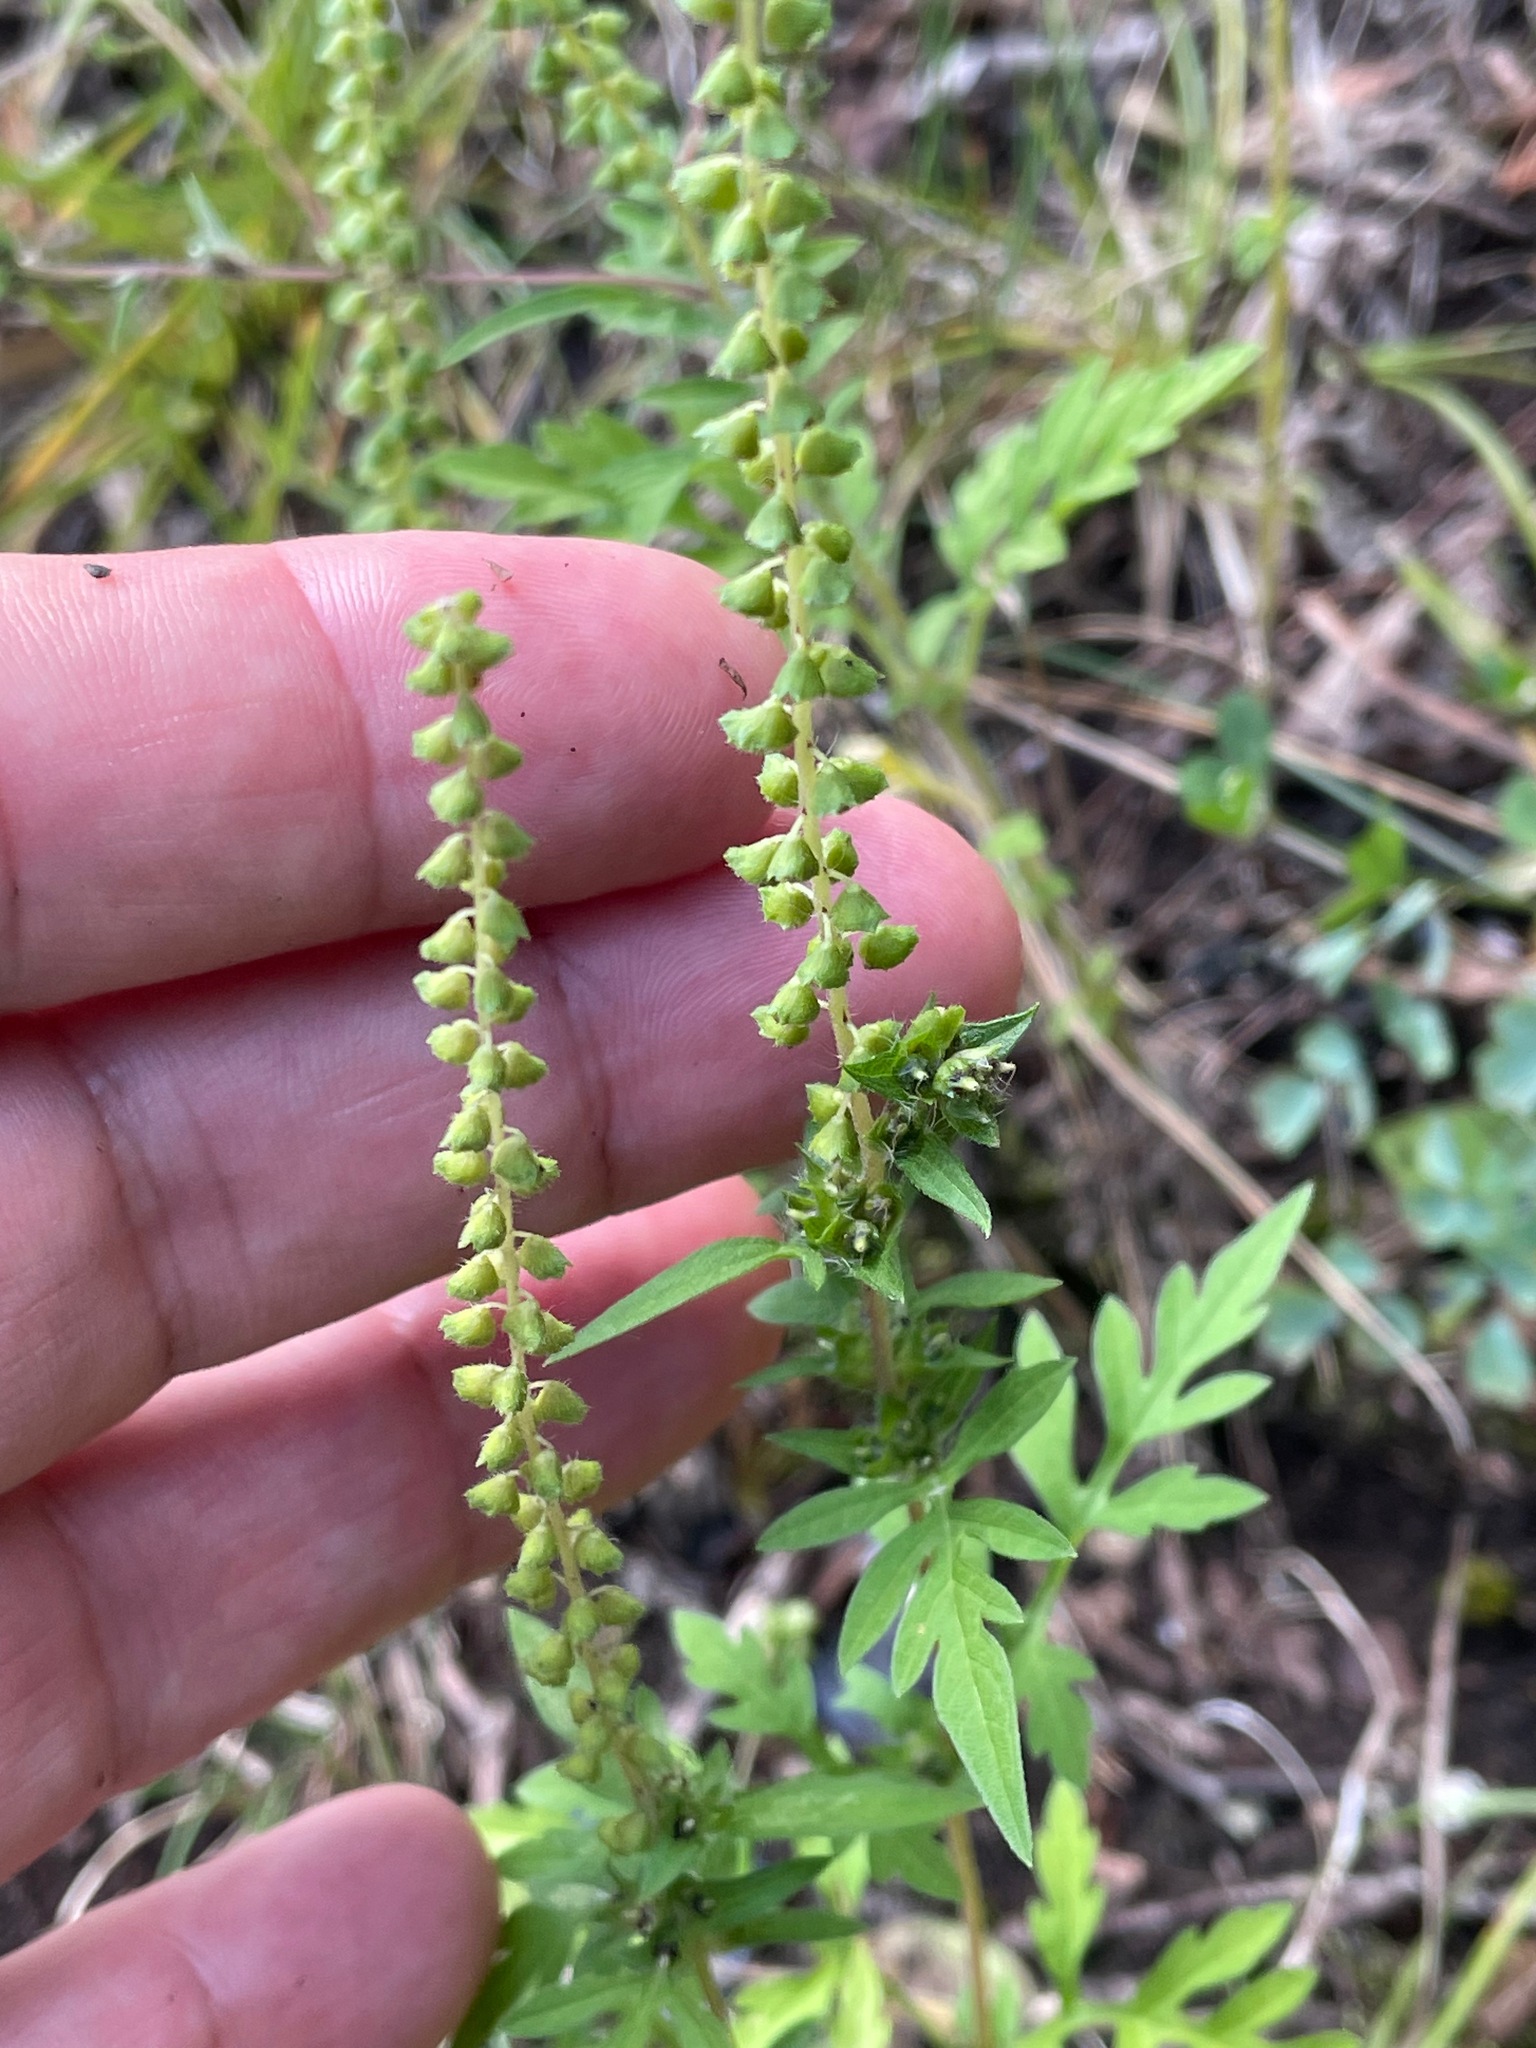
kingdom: Plantae
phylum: Tracheophyta
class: Magnoliopsida
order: Asterales
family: Asteraceae
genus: Ambrosia
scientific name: Ambrosia artemisiifolia
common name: Annual ragweed
